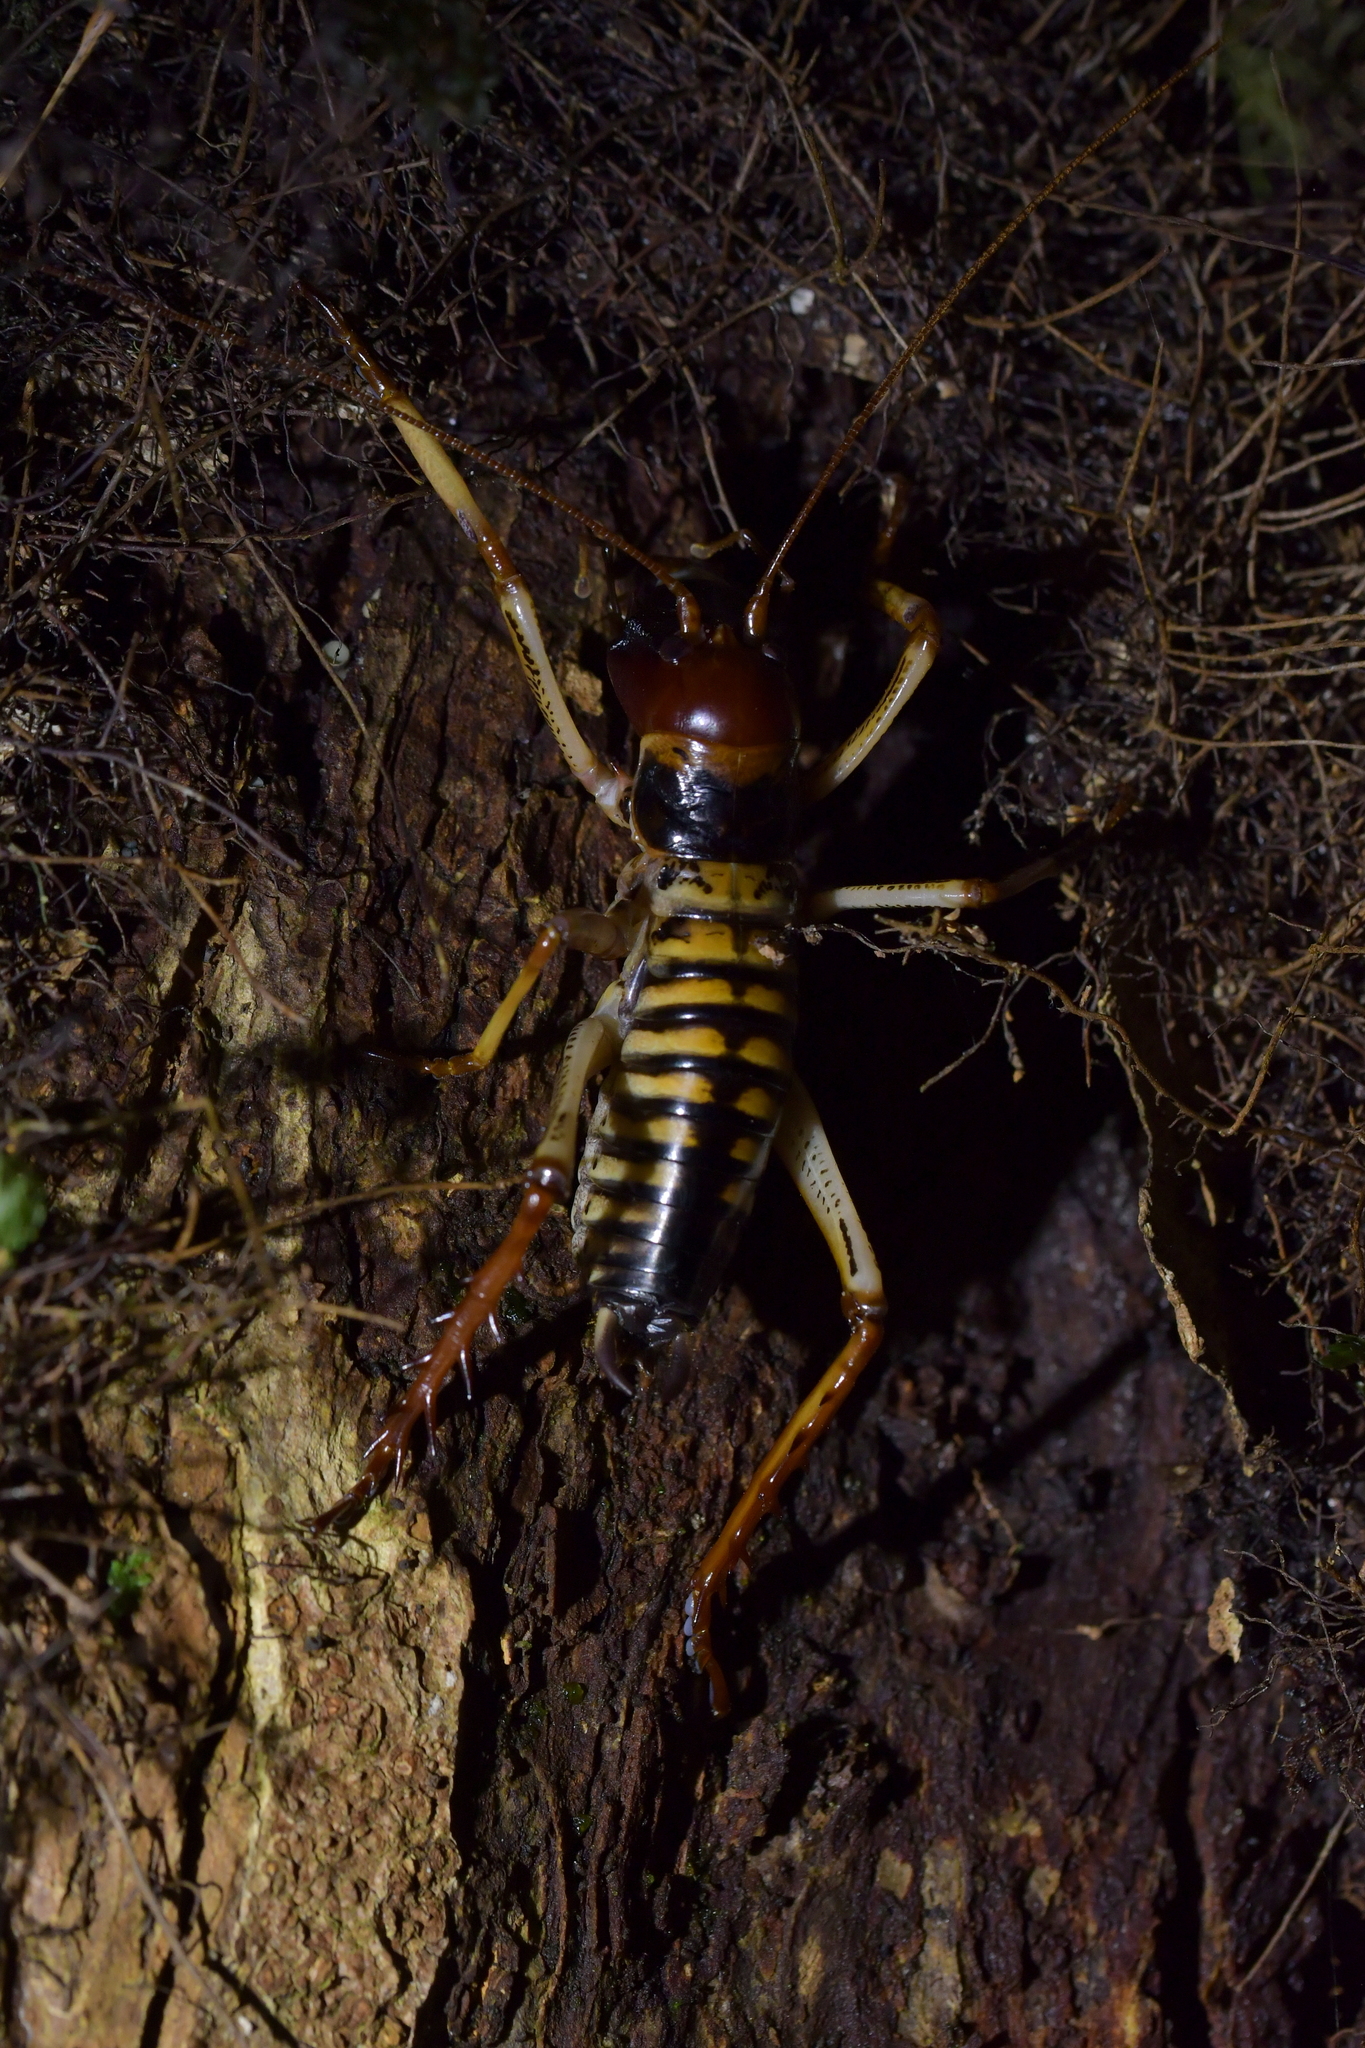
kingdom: Animalia
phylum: Arthropoda
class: Insecta
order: Orthoptera
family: Anostostomatidae
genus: Hemideina
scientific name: Hemideina crassidens
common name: Wellington tree weta
